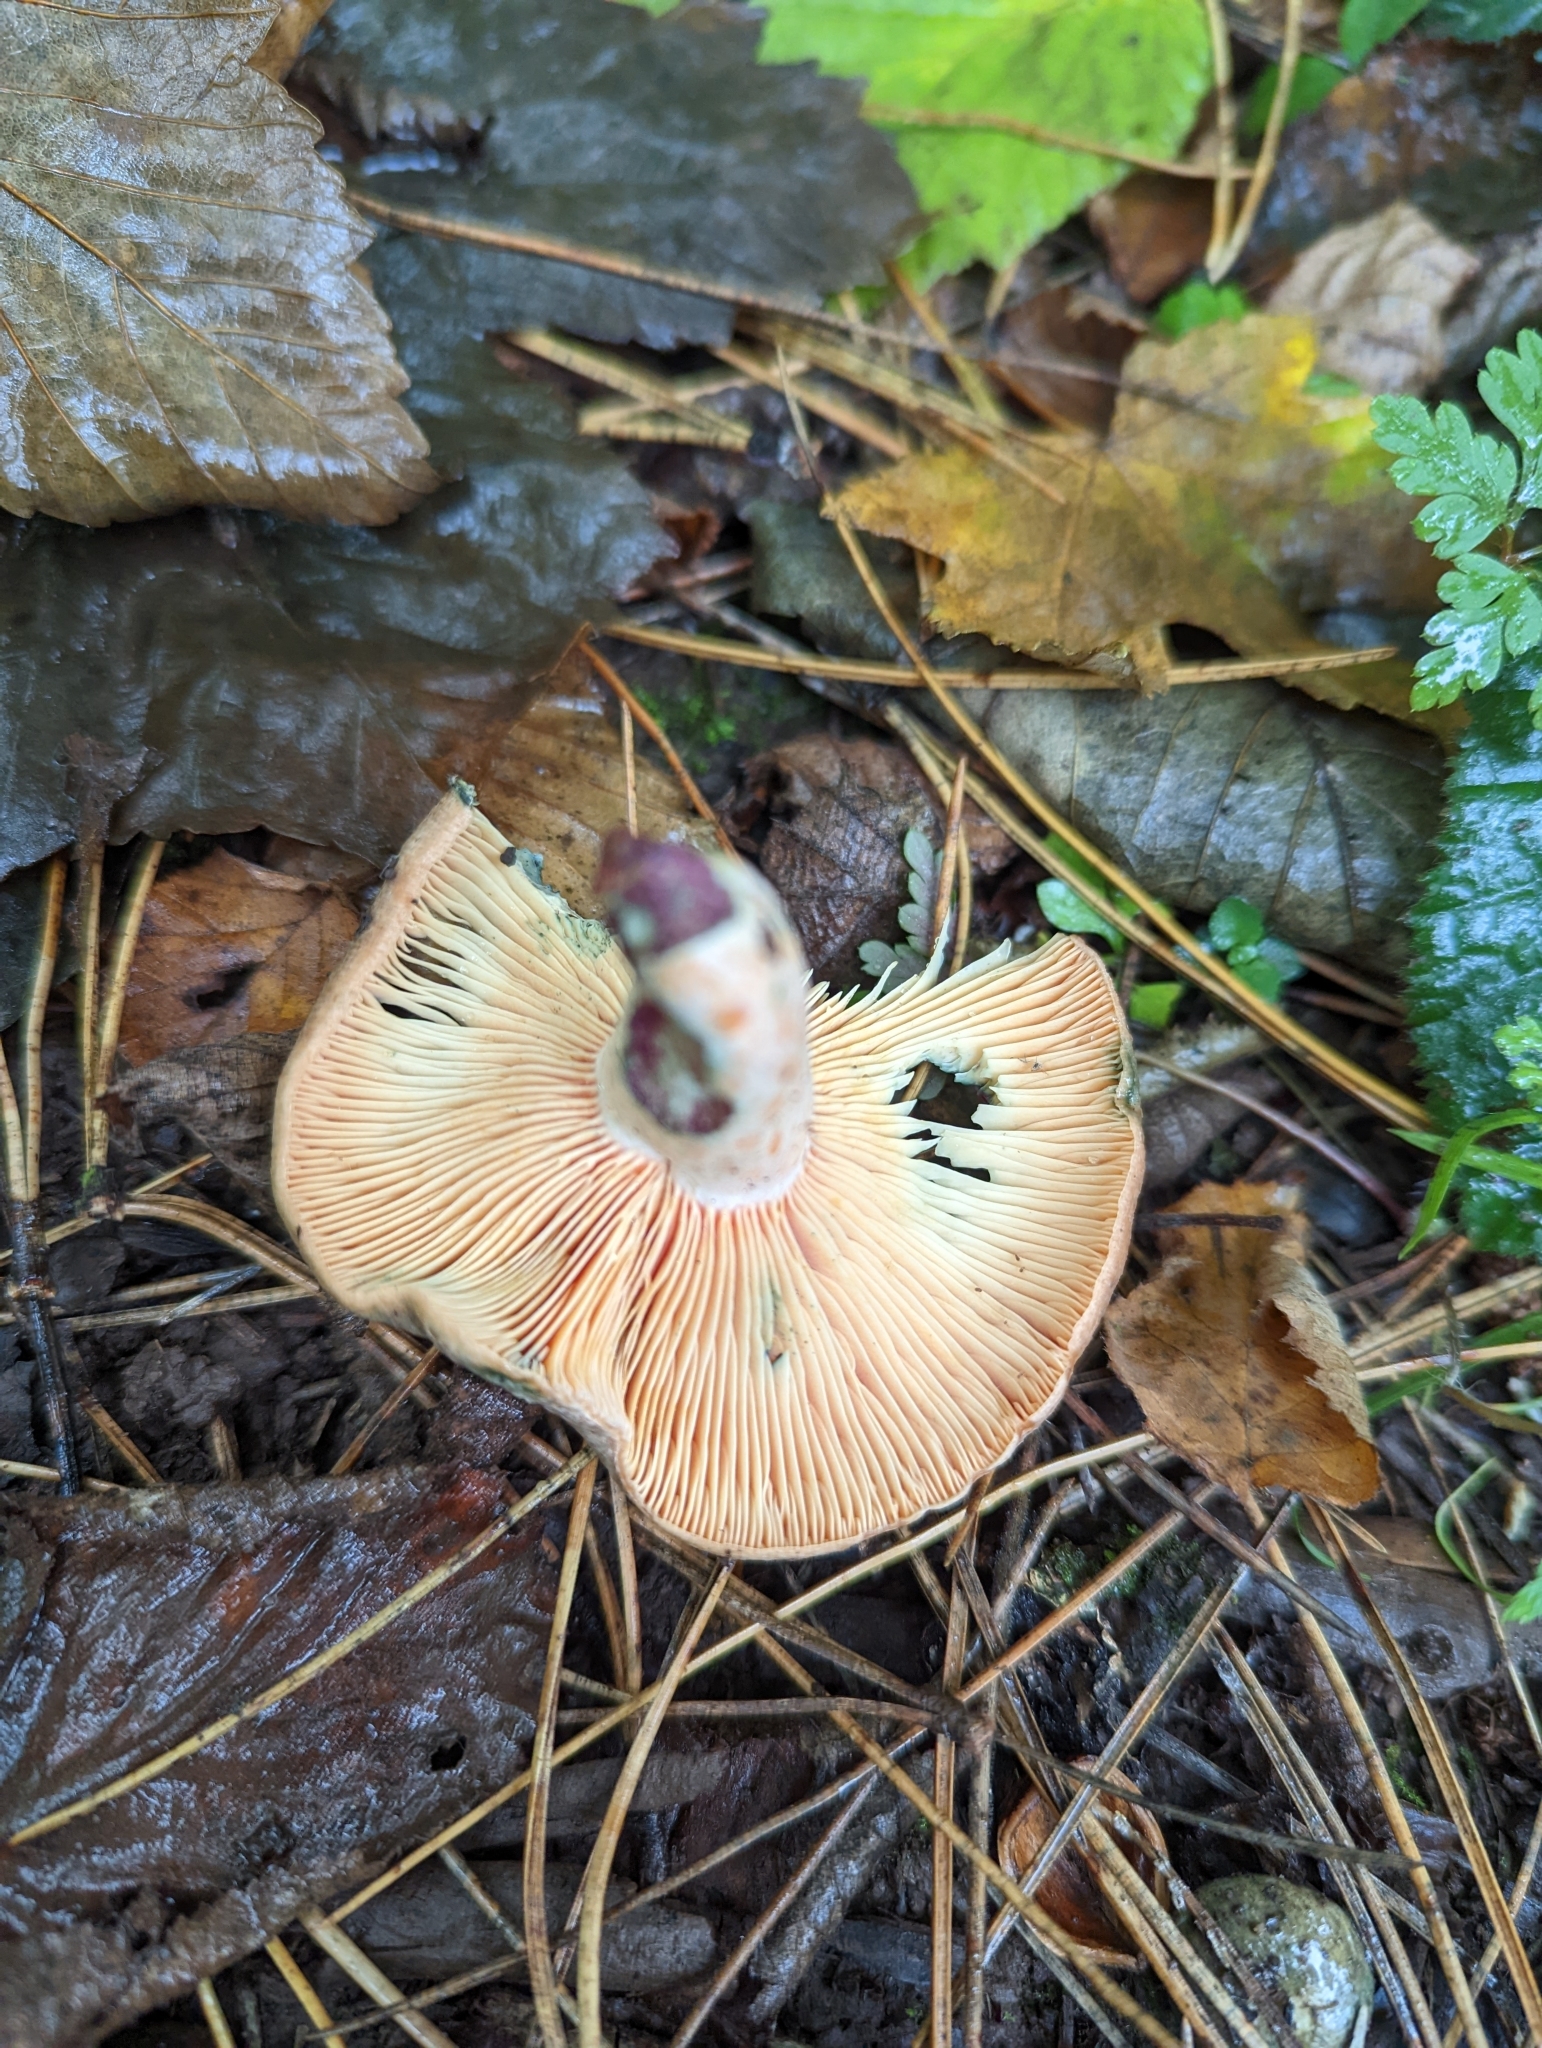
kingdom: Fungi
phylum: Basidiomycota
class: Agaricomycetes
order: Russulales
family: Russulaceae
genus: Lactarius
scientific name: Lactarius deliciosus
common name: Saffron milk-cap
